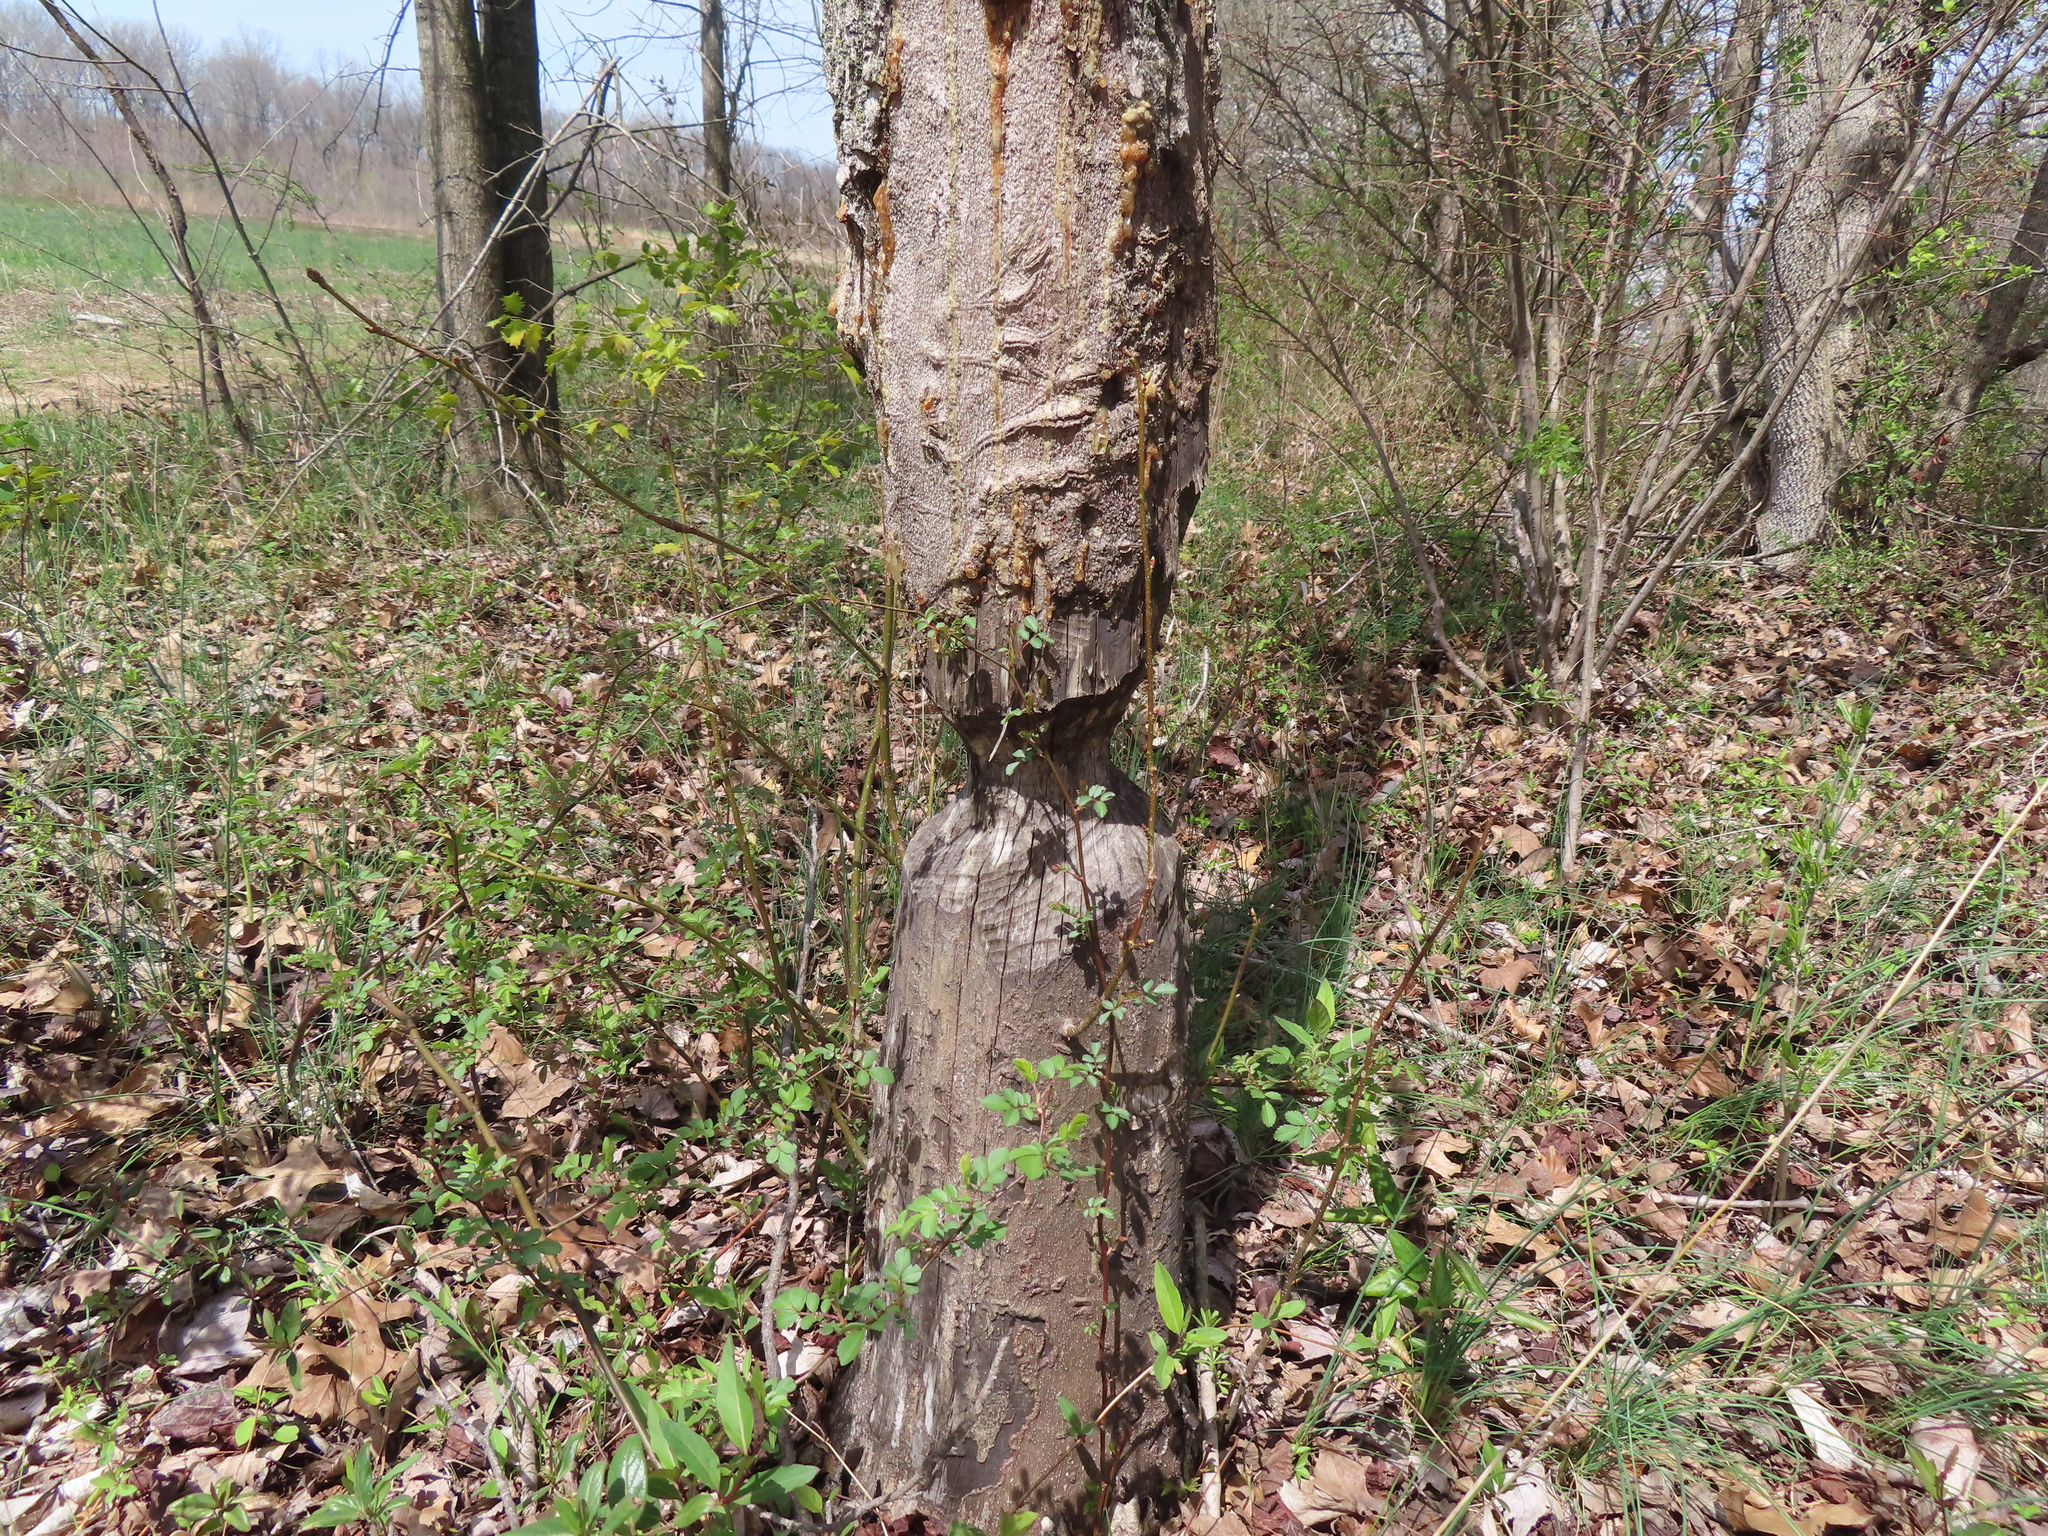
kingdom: Animalia
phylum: Chordata
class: Mammalia
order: Rodentia
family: Castoridae
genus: Castor
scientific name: Castor canadensis
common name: American beaver
